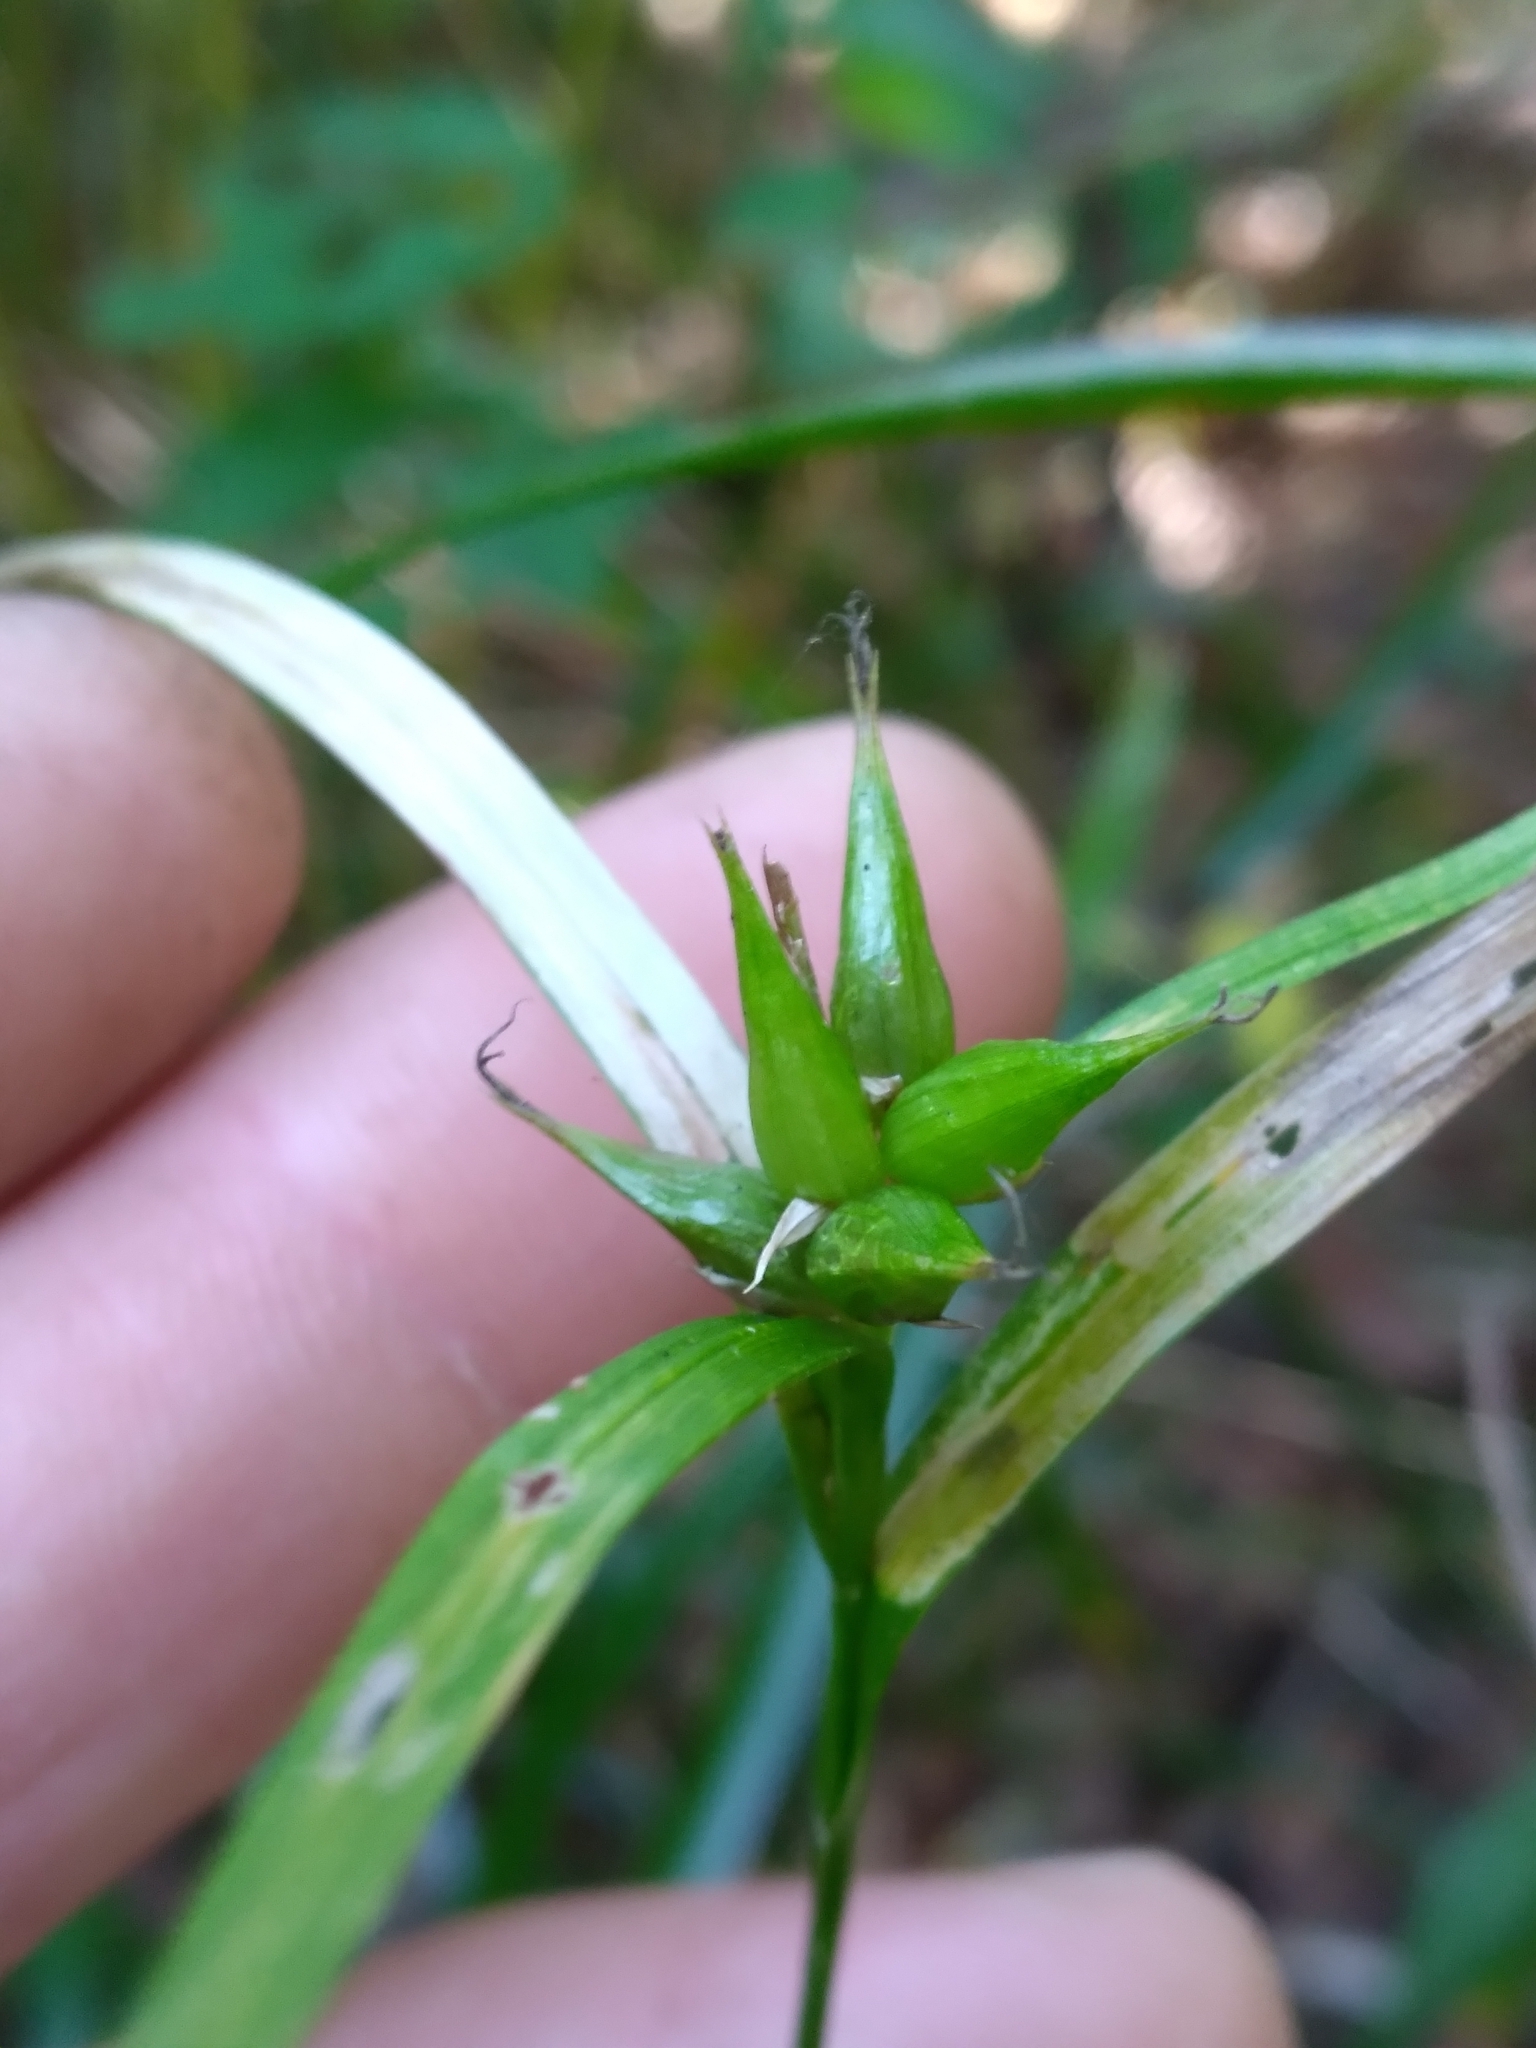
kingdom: Plantae
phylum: Tracheophyta
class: Liliopsida
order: Poales
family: Cyperaceae
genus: Carex
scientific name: Carex intumescens
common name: Greater bladder sedge
